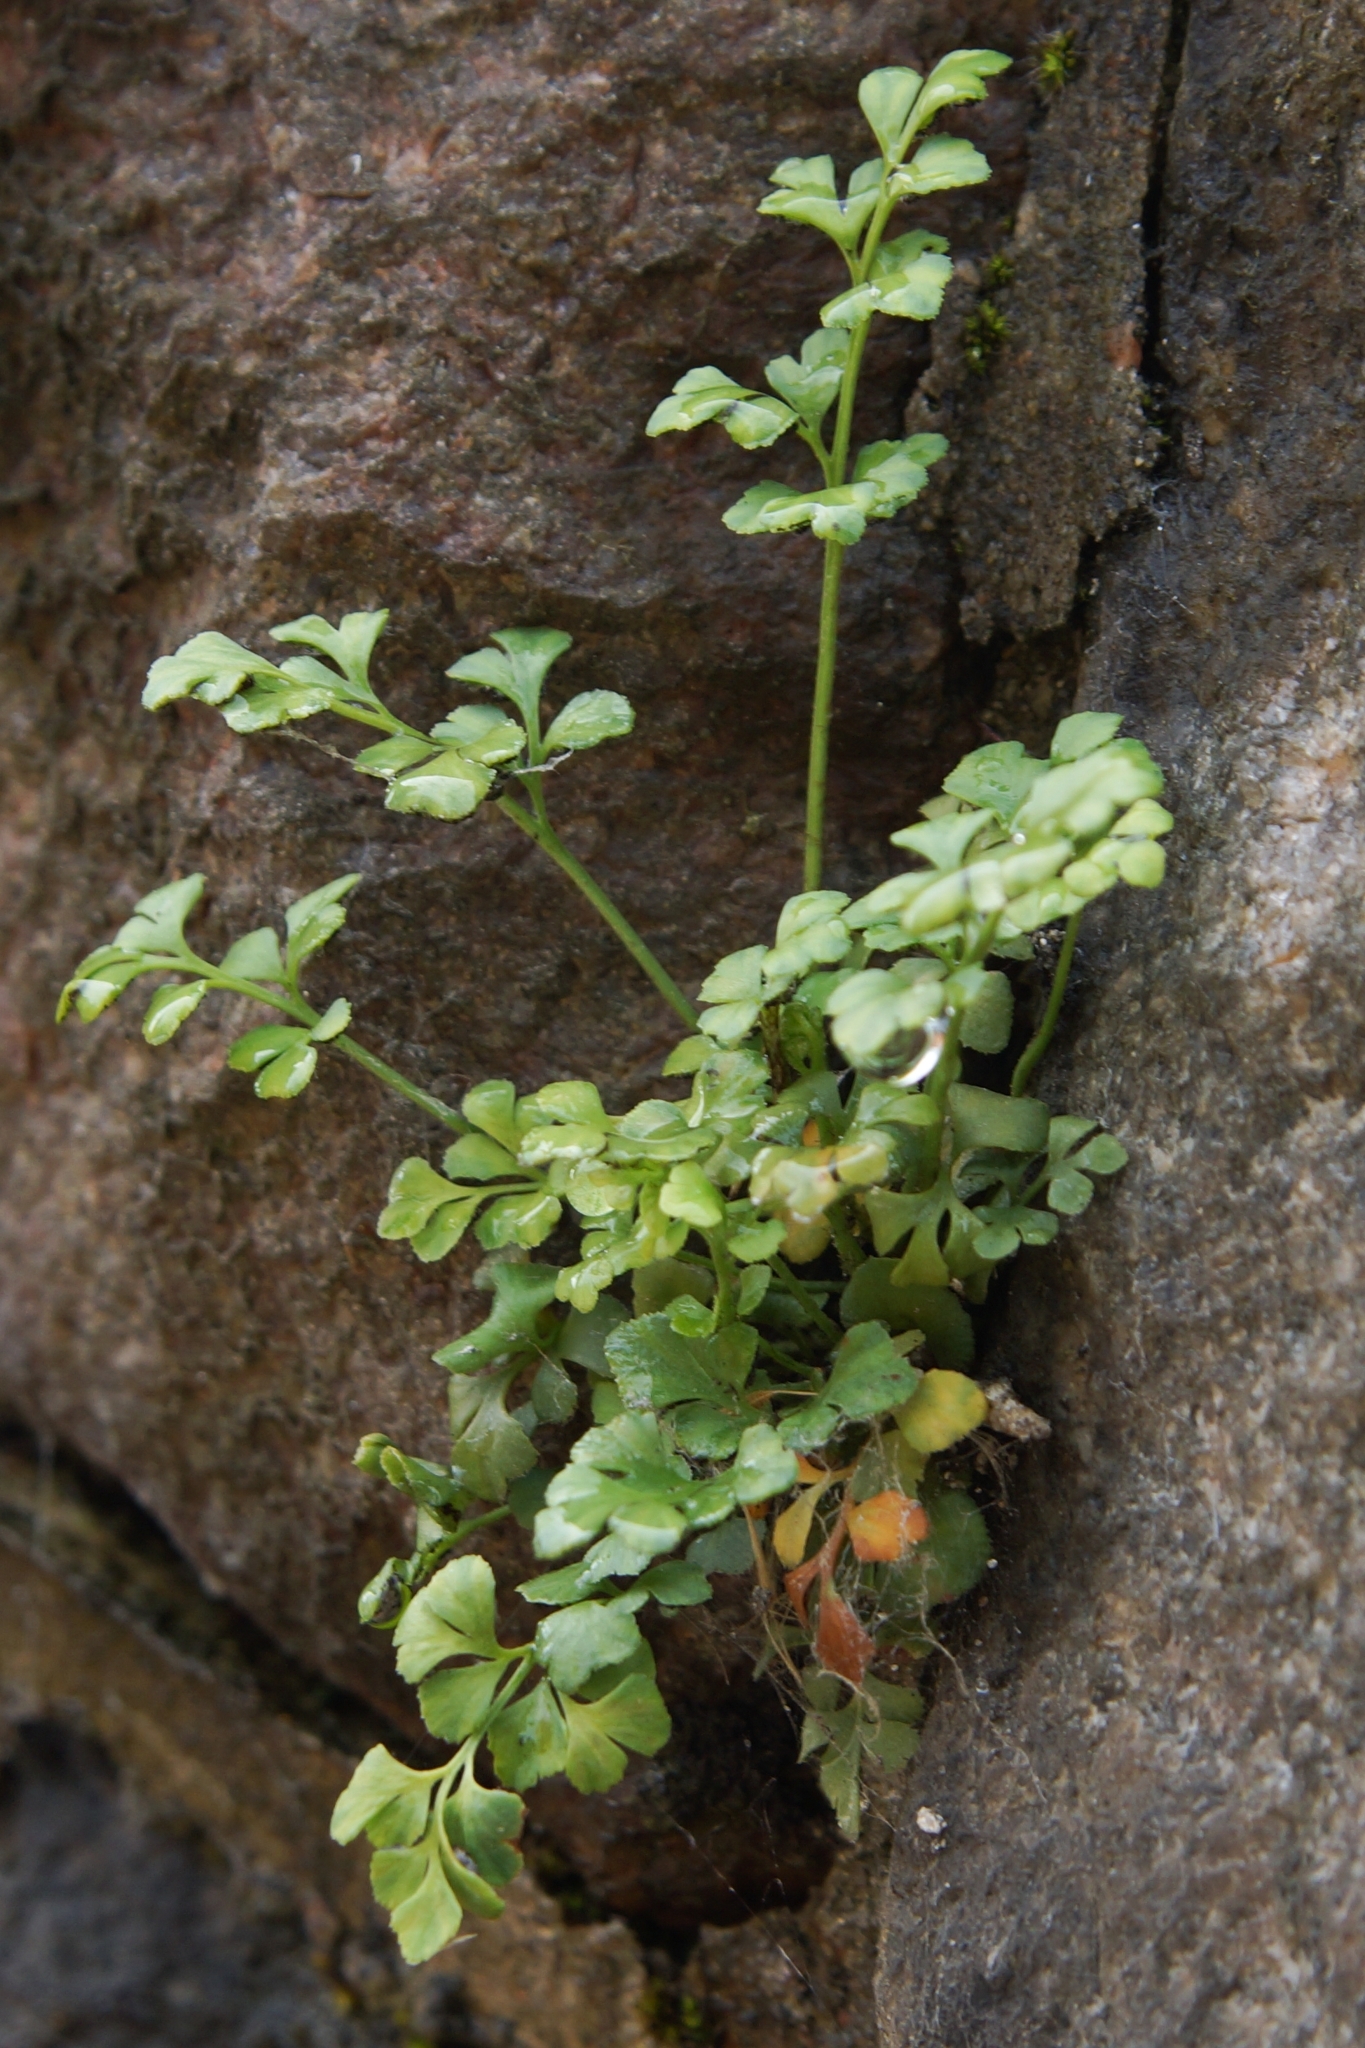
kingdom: Plantae
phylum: Tracheophyta
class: Polypodiopsida
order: Polypodiales
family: Aspleniaceae
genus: Asplenium
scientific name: Asplenium ruta-muraria
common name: Wall-rue
